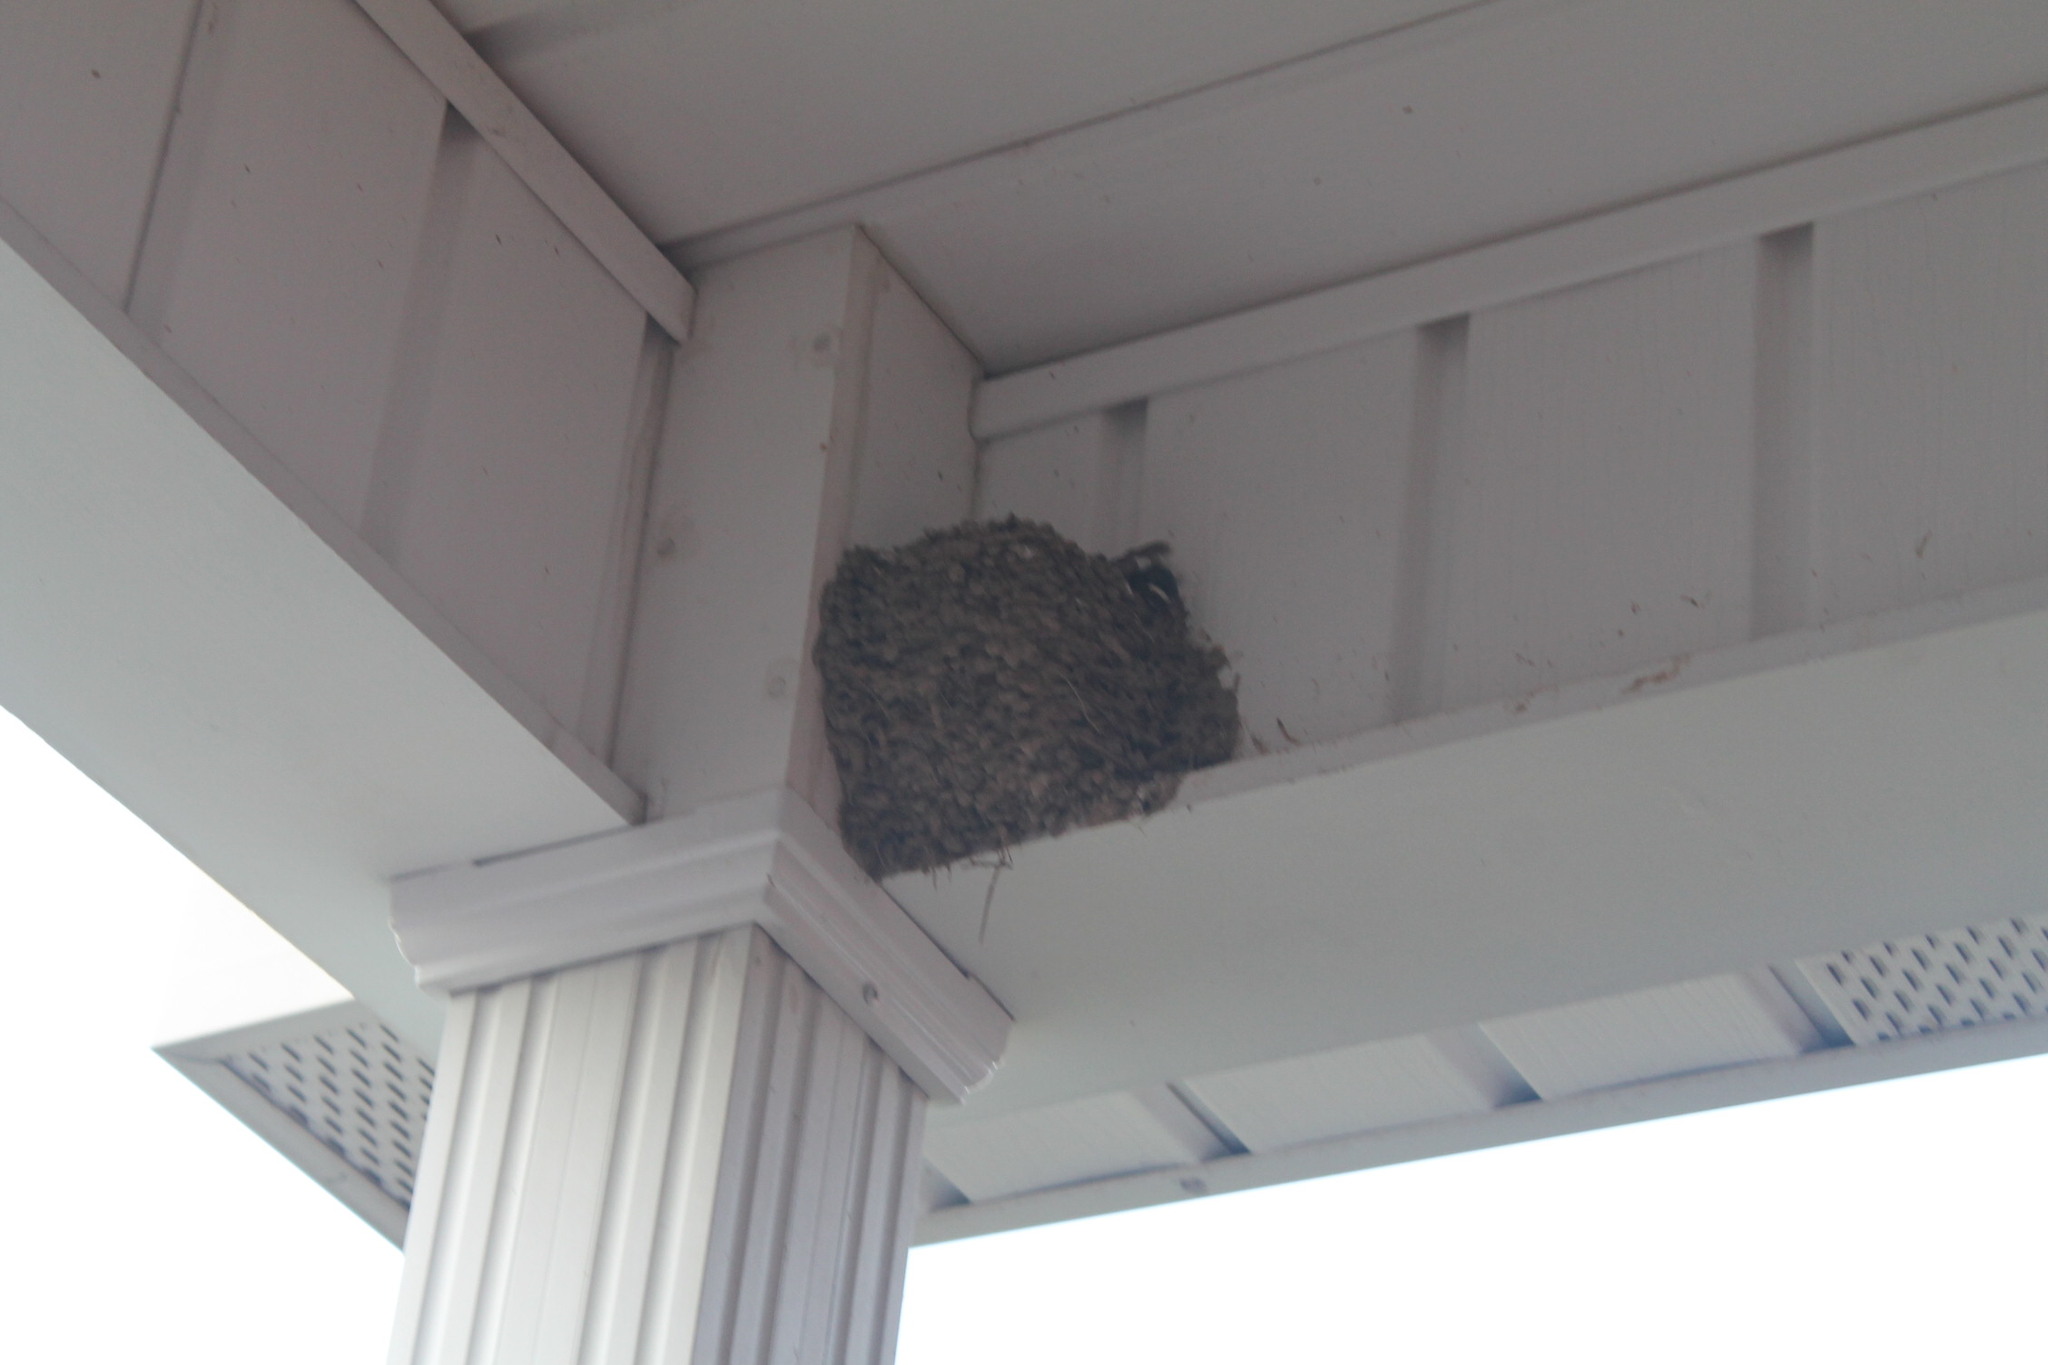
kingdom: Animalia
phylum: Chordata
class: Aves
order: Passeriformes
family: Hirundinidae
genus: Hirundo
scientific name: Hirundo rustica
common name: Barn swallow
